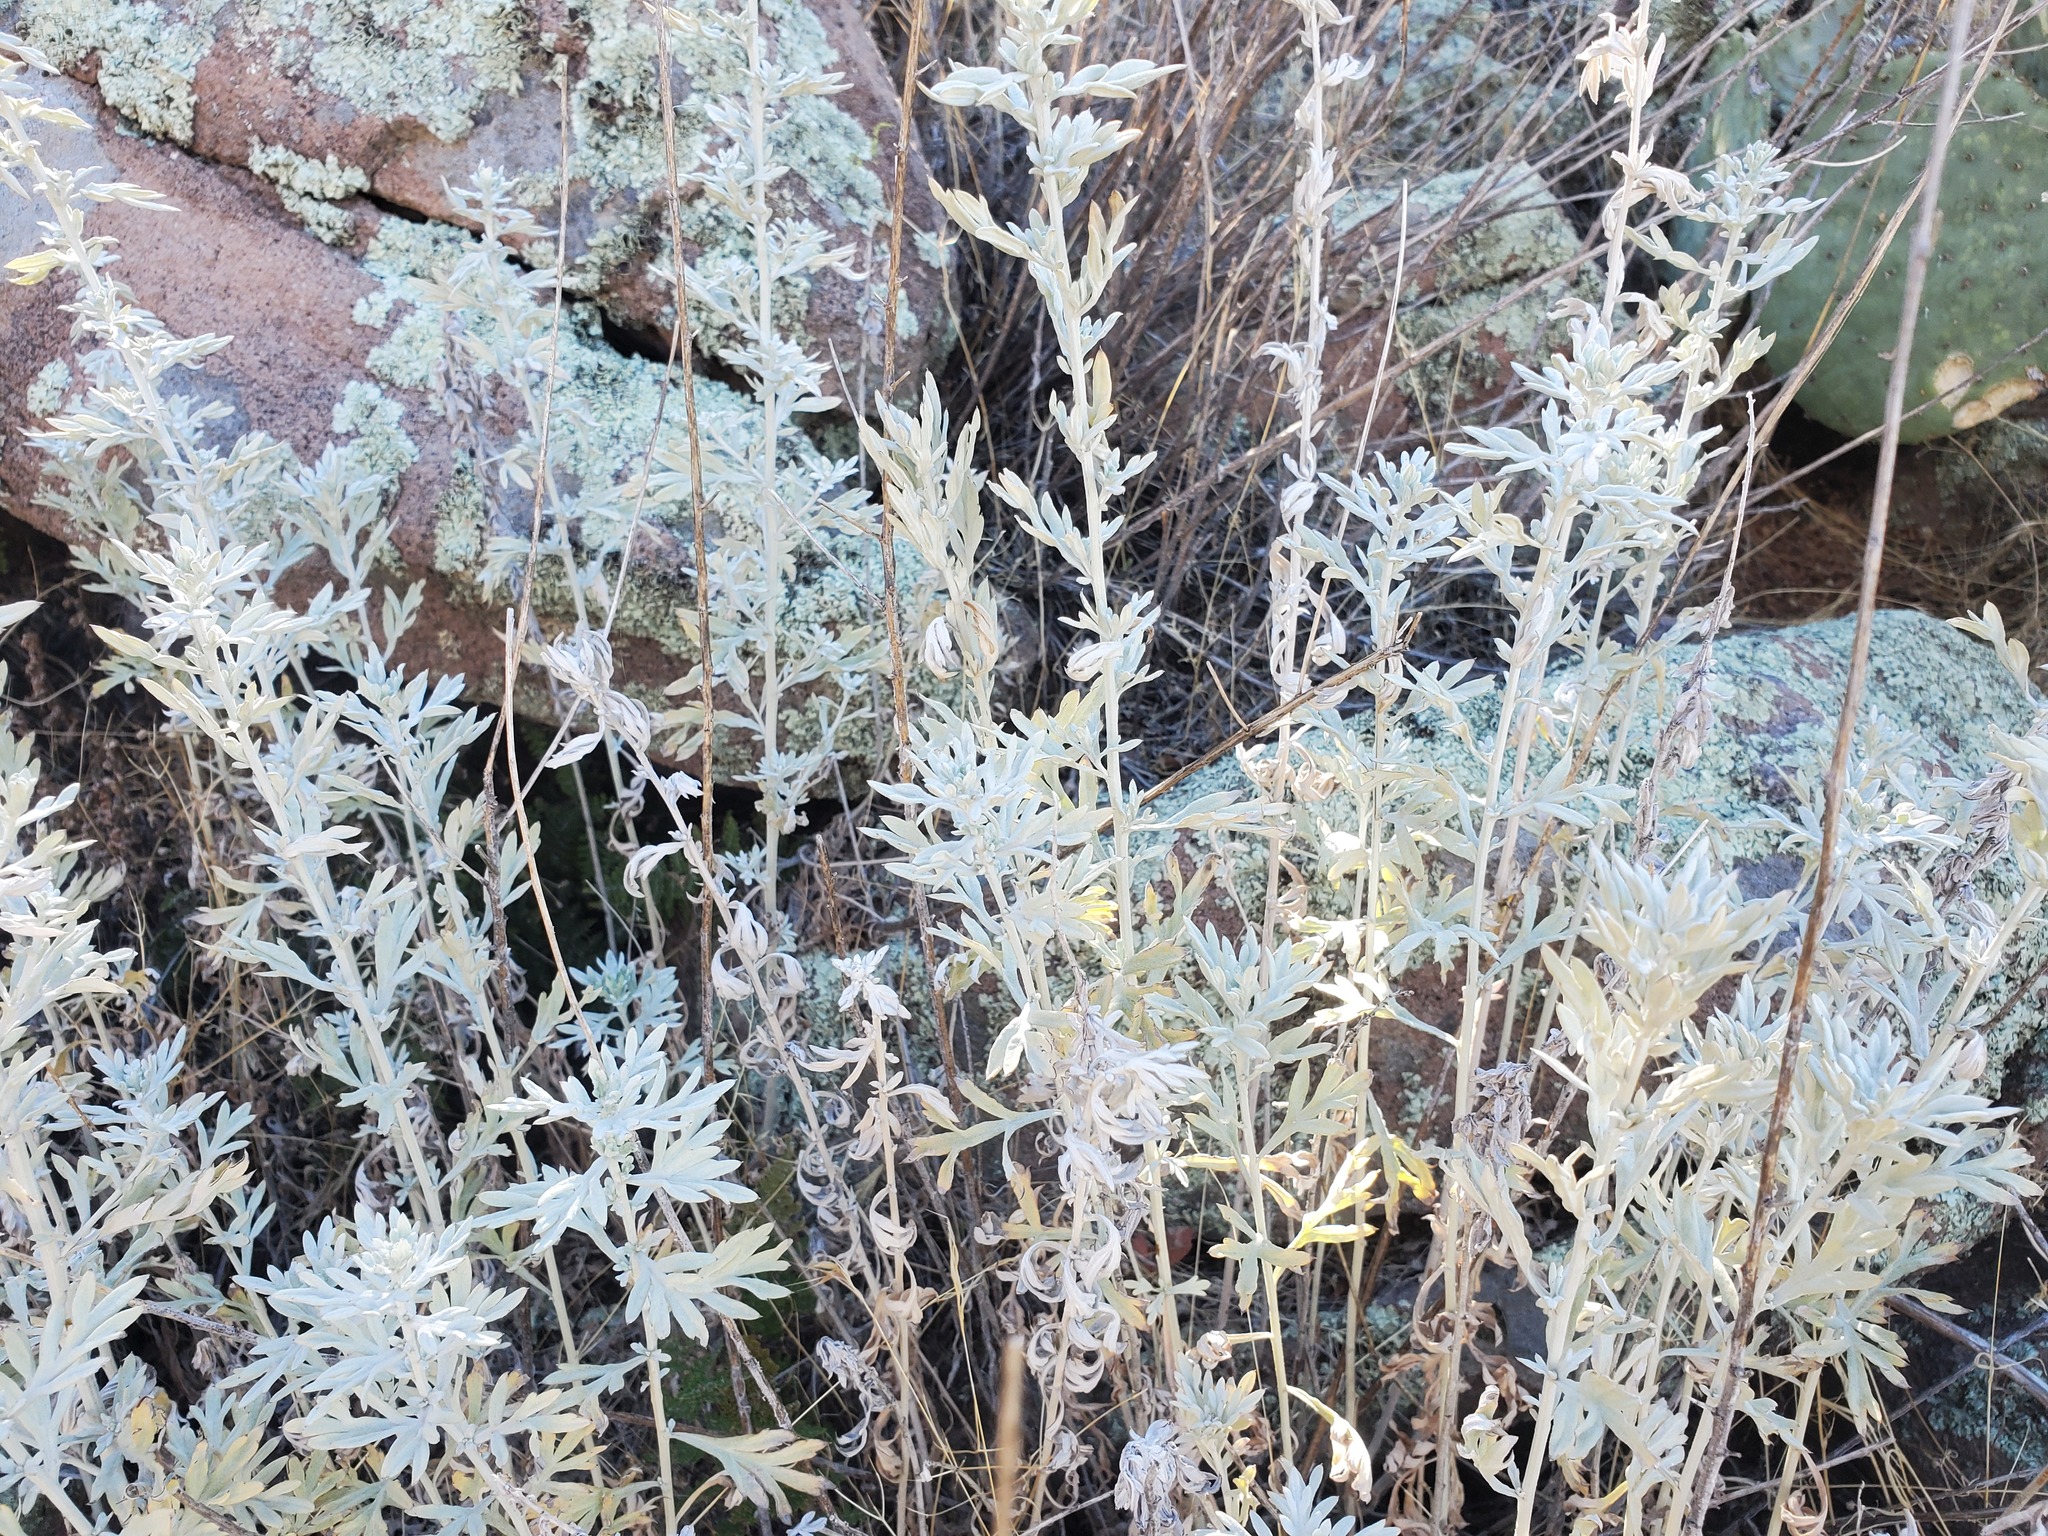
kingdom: Plantae
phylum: Tracheophyta
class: Magnoliopsida
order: Asterales
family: Asteraceae
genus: Artemisia
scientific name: Artemisia ludoviciana
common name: Western mugwort
